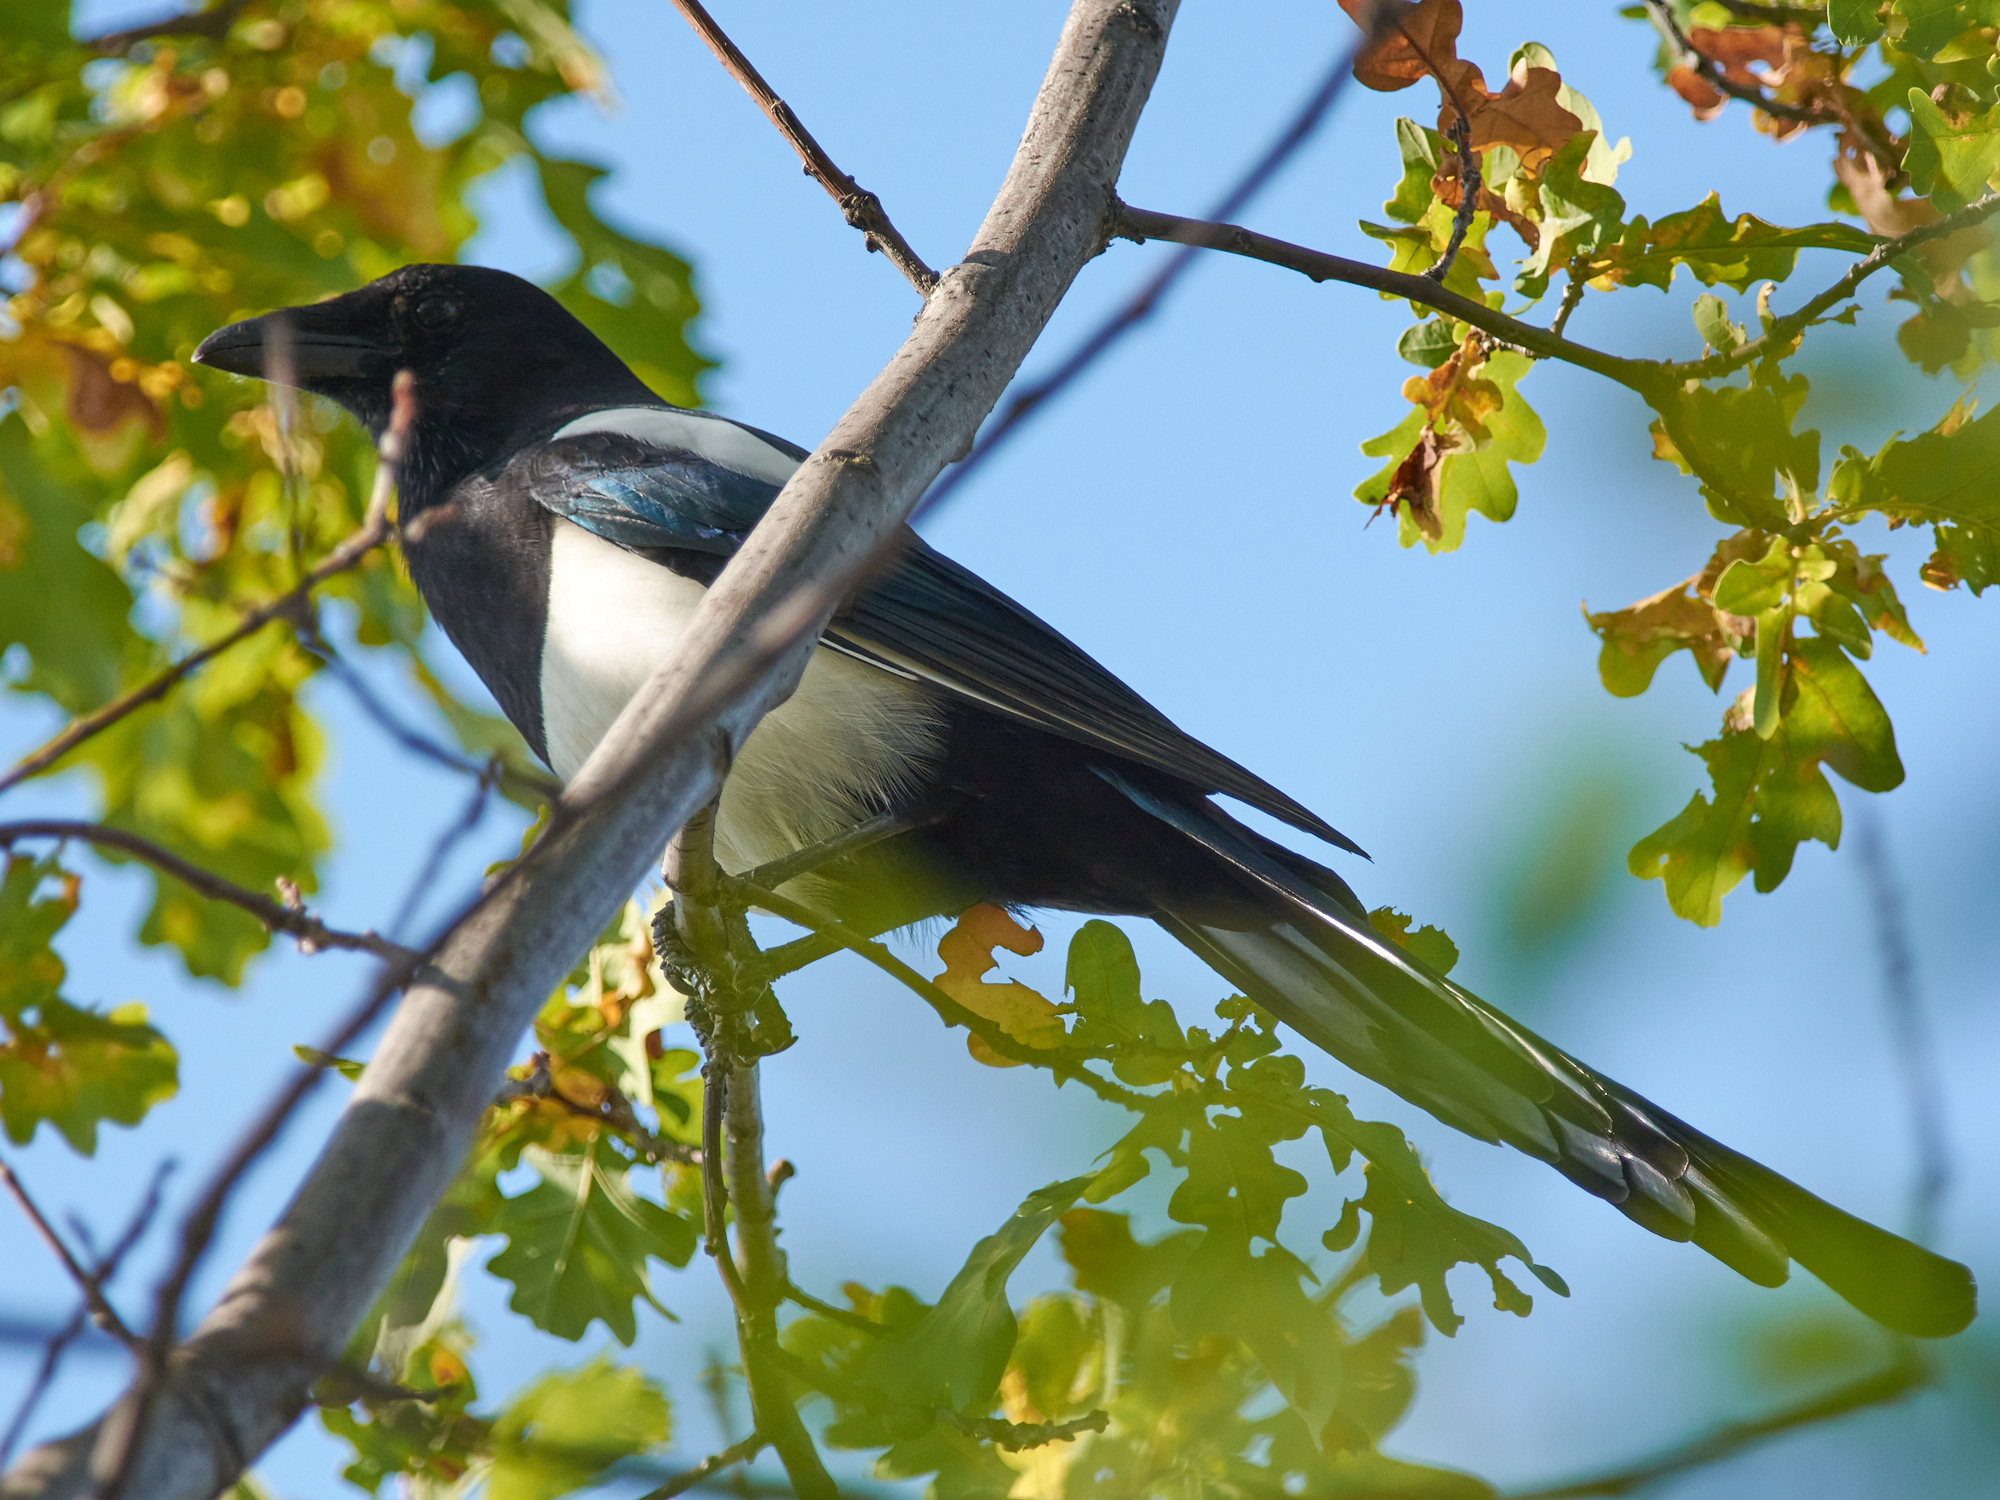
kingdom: Animalia
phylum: Chordata
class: Aves
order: Passeriformes
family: Corvidae
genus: Pica
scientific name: Pica pica
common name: Eurasian magpie
